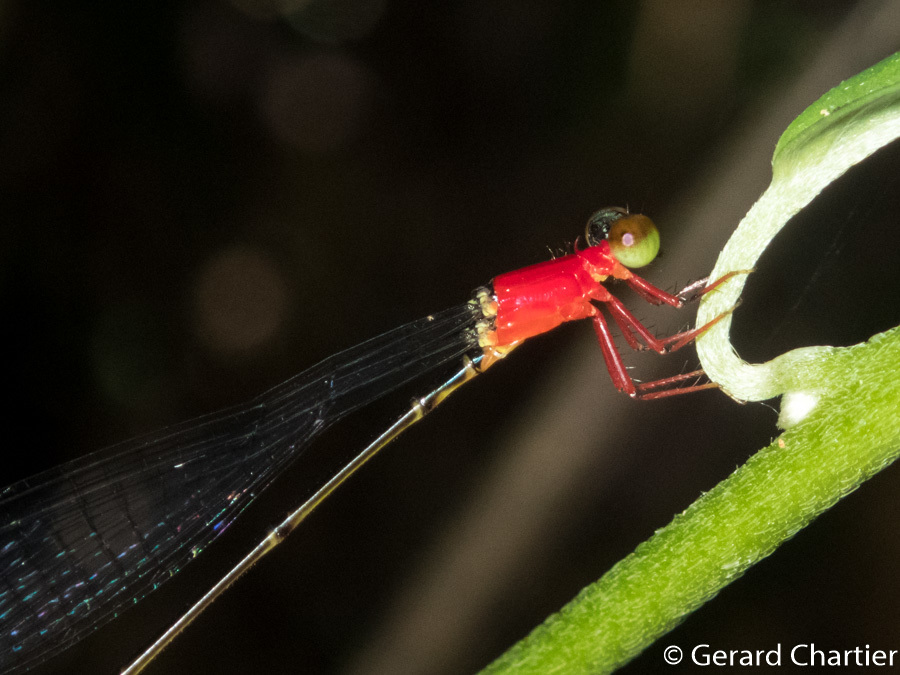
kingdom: Animalia
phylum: Arthropoda
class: Insecta
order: Odonata
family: Coenagrionidae
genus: Amphicnemis
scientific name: Amphicnemis valentini
